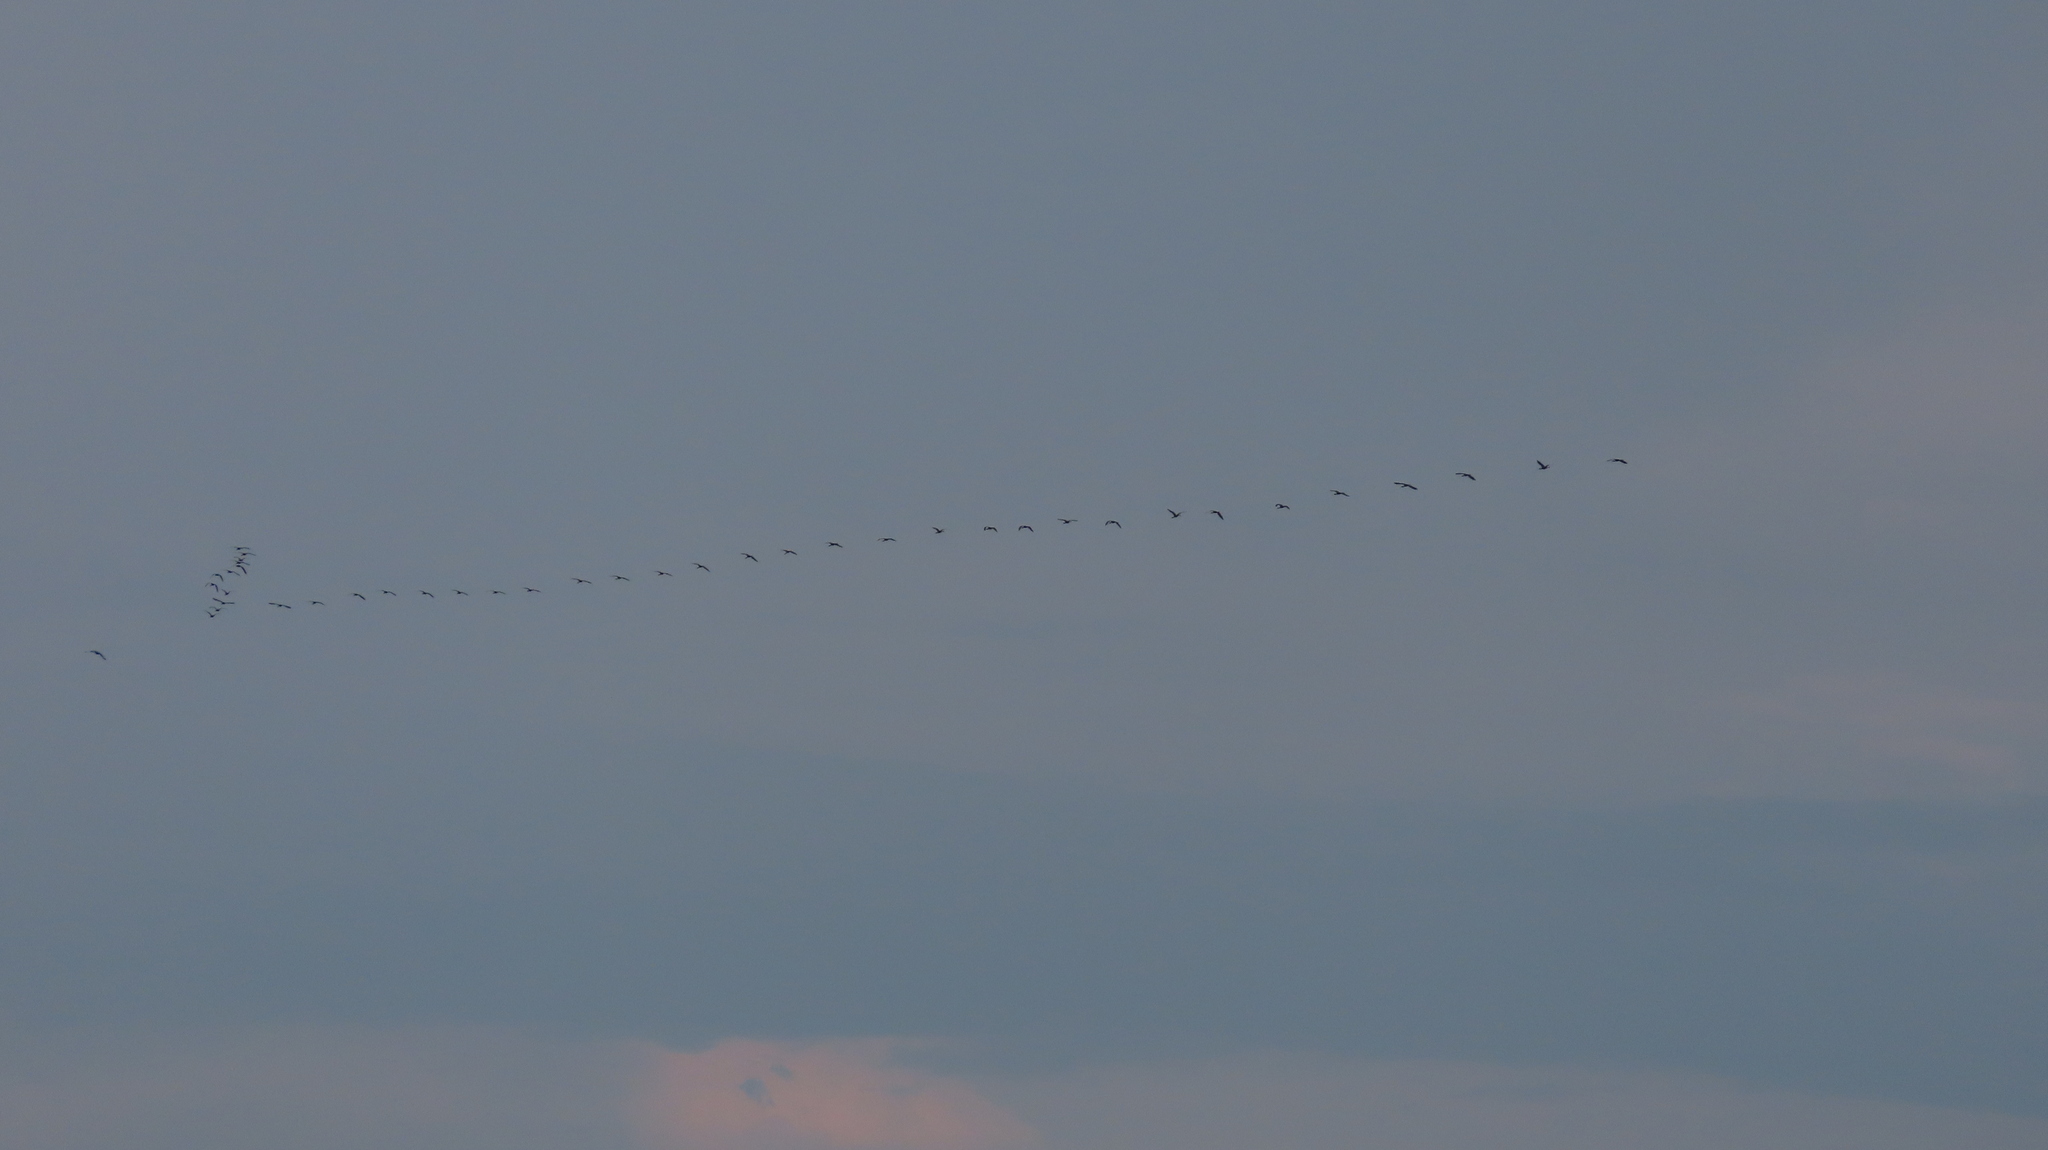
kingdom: Animalia
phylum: Chordata
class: Aves
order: Pelecaniformes
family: Threskiornithidae
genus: Plegadis
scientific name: Plegadis falcinellus
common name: Glossy ibis
